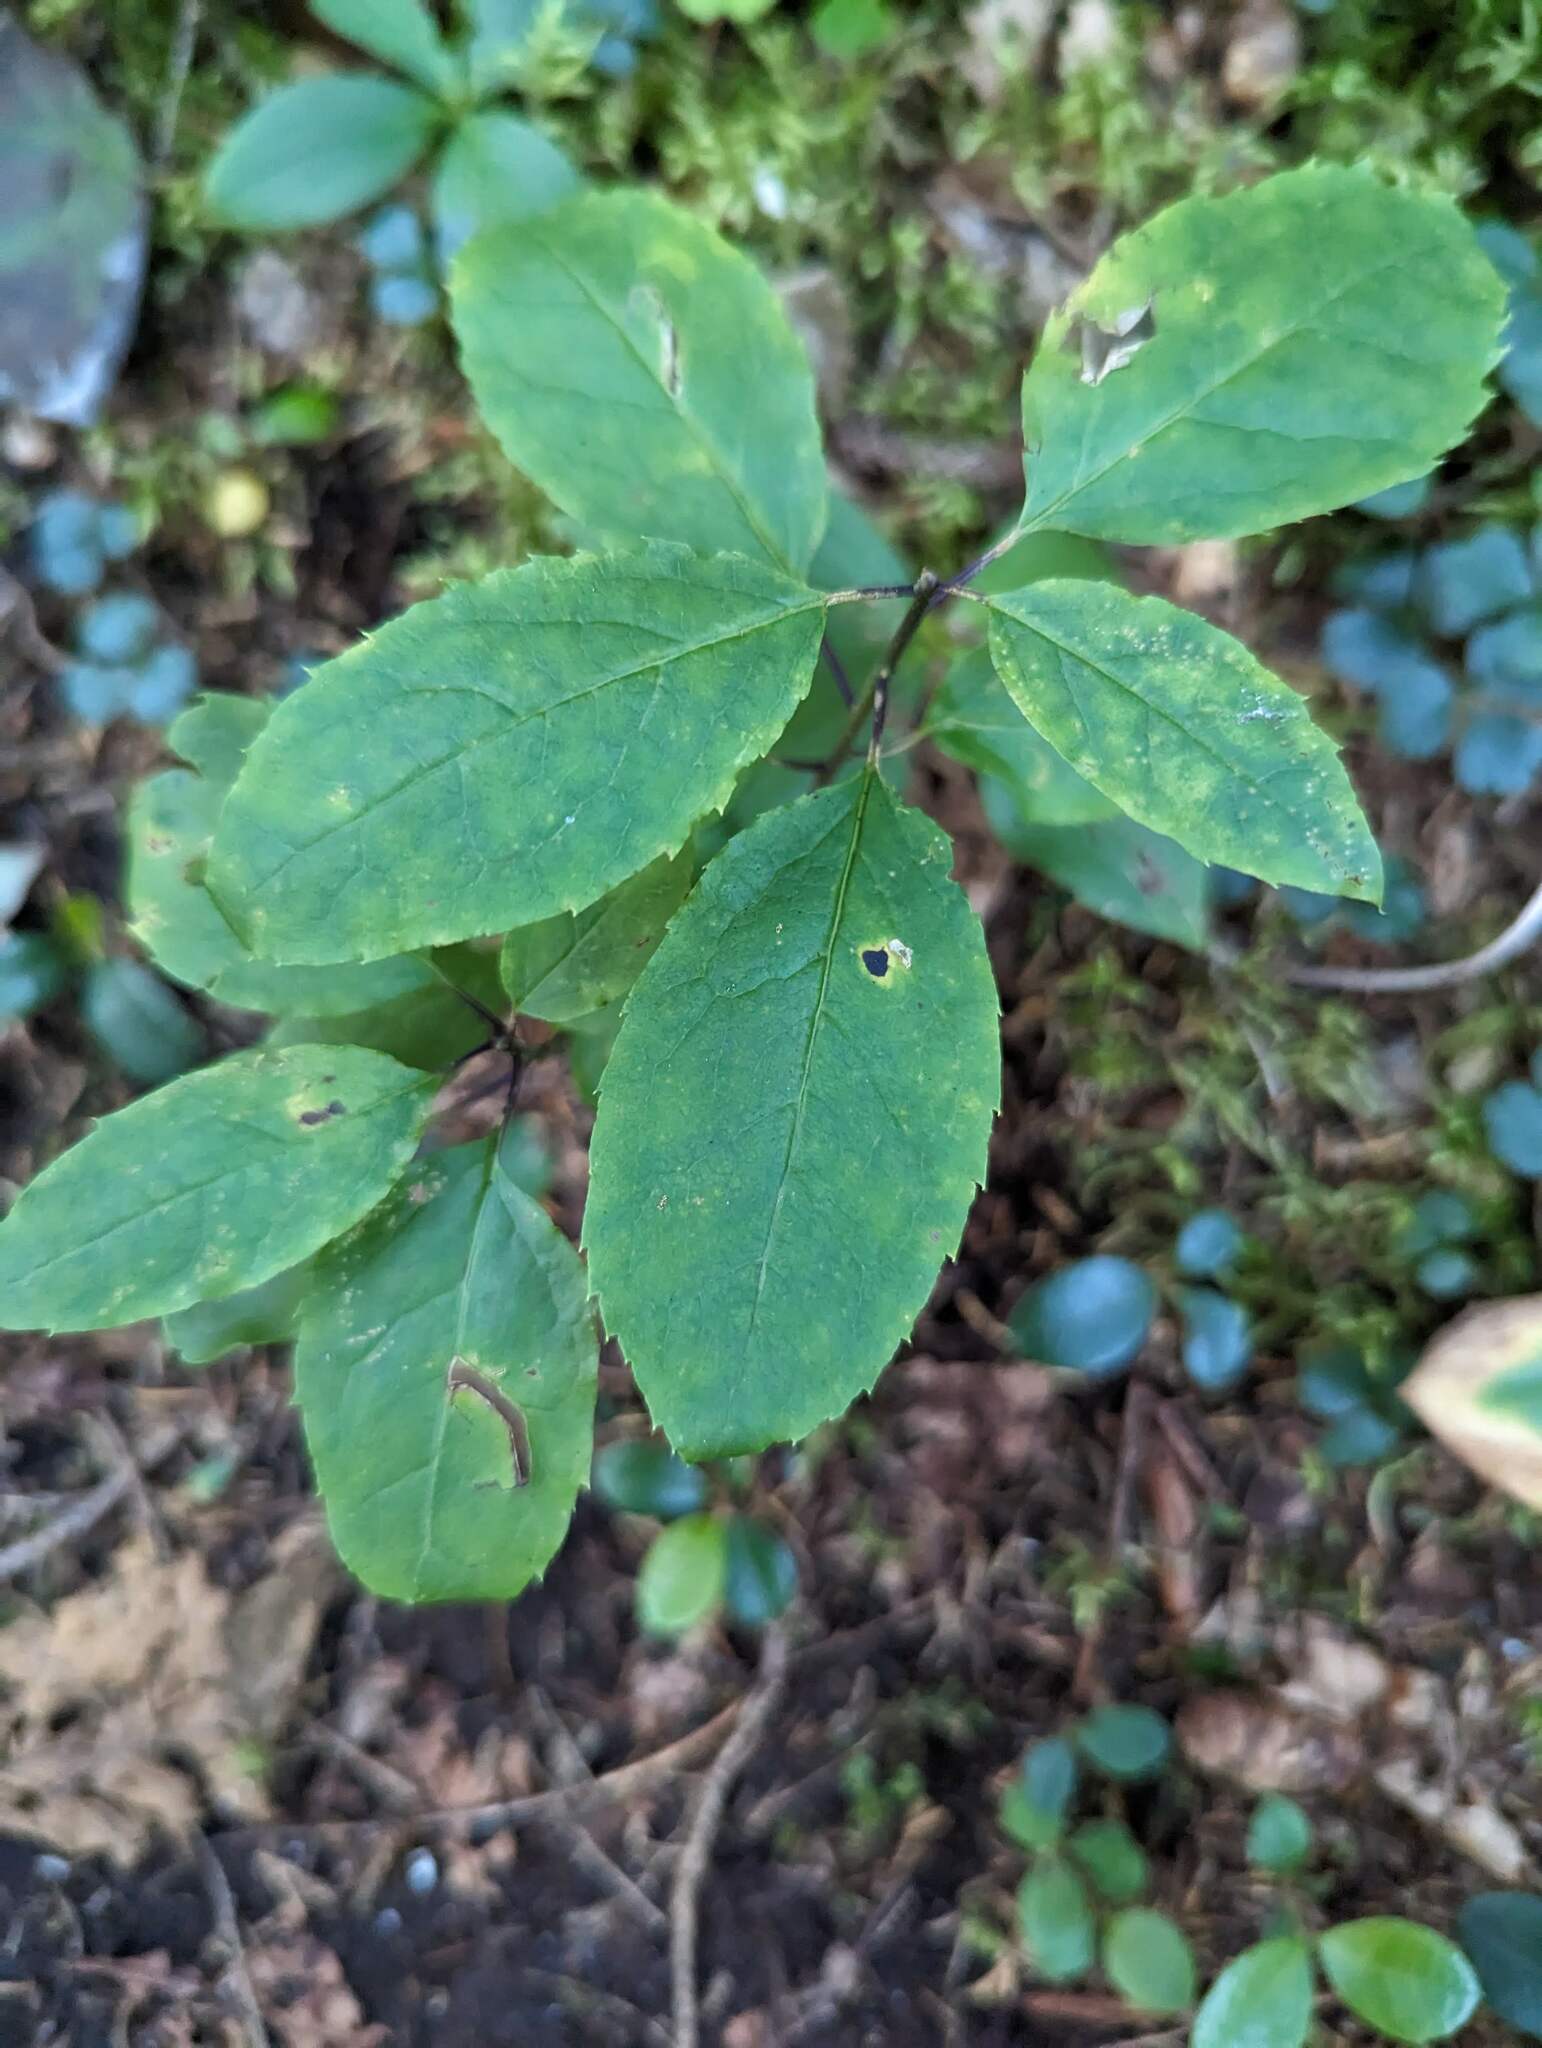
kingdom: Plantae
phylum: Tracheophyta
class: Magnoliopsida
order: Aquifoliales
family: Aquifoliaceae
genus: Ilex
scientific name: Ilex mucronata
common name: Catberry
